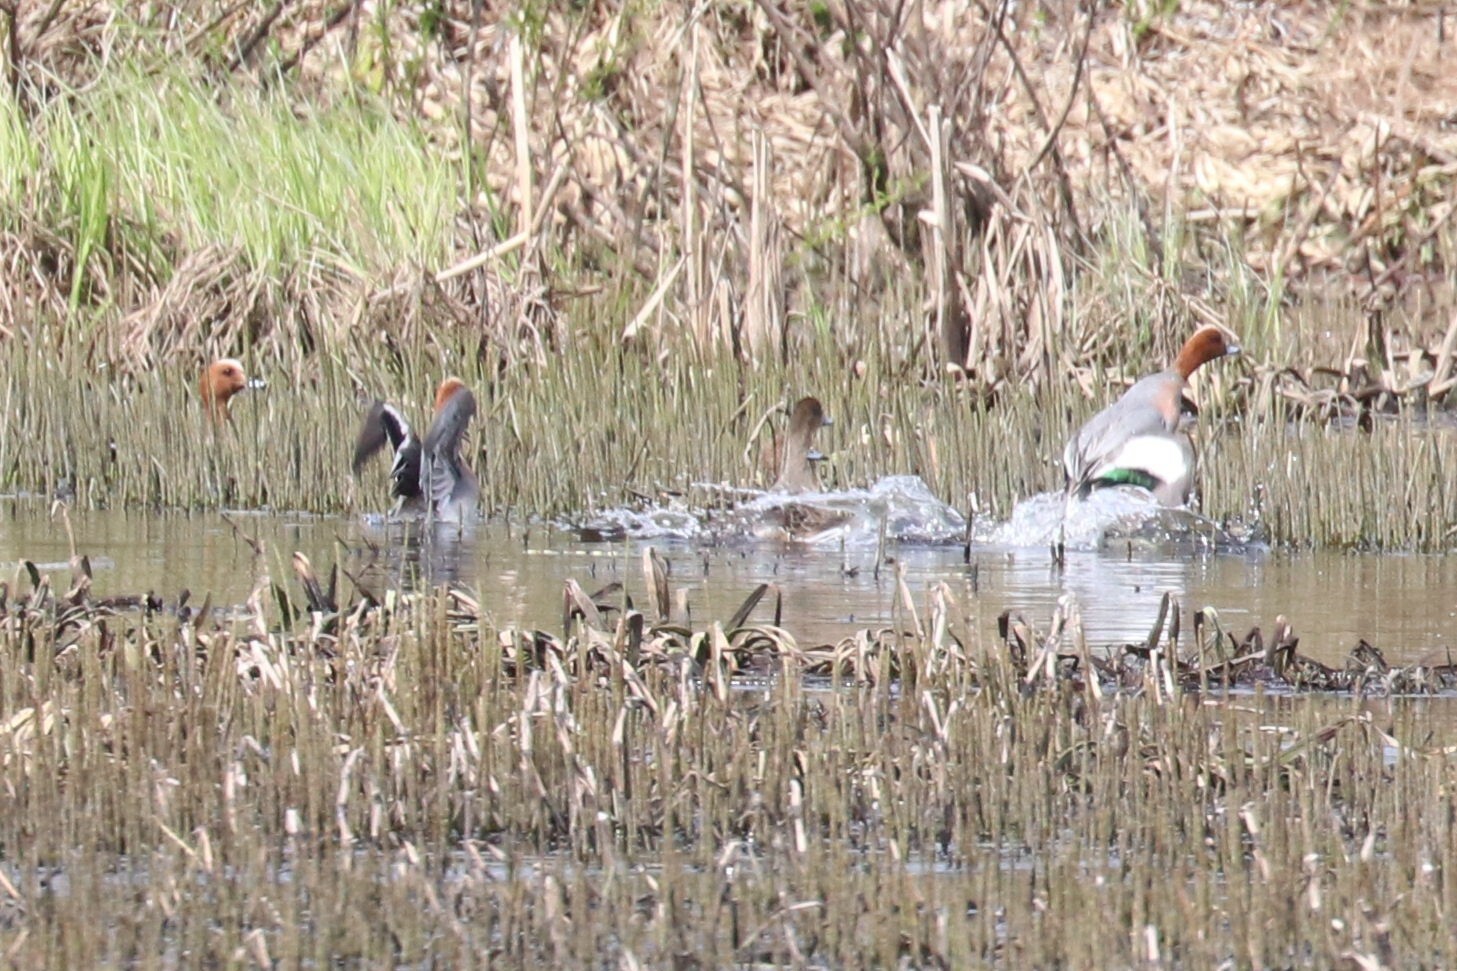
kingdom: Animalia
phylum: Chordata
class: Aves
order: Anseriformes
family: Anatidae
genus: Mareca
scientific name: Mareca penelope
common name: Eurasian wigeon
